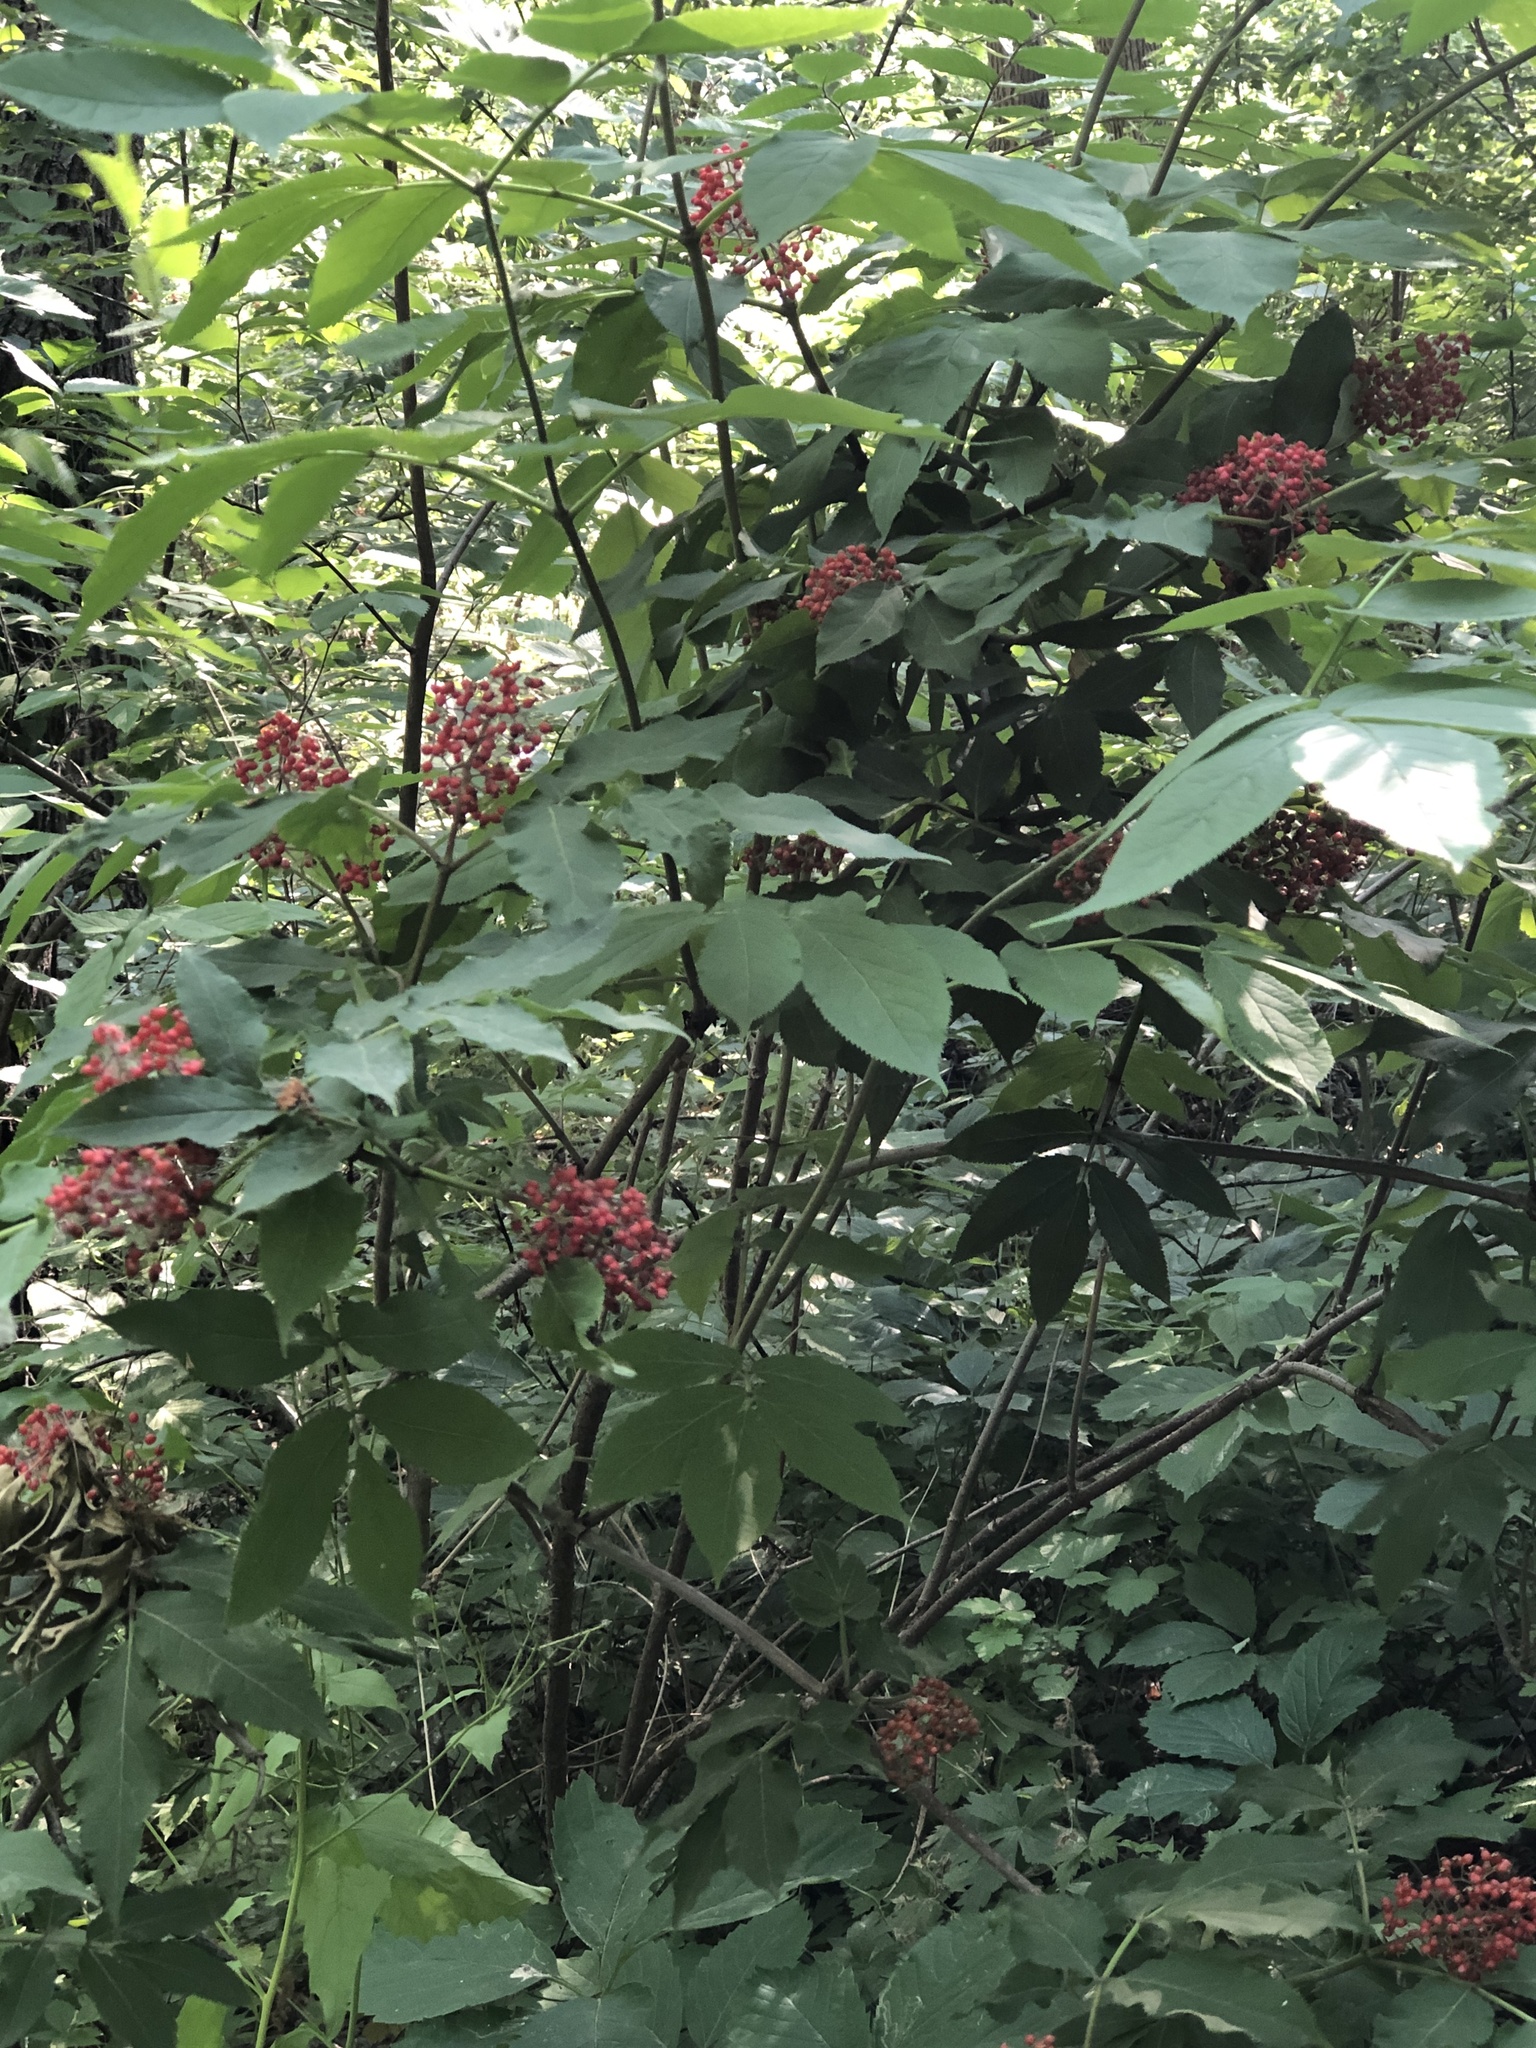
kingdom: Plantae
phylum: Tracheophyta
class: Magnoliopsida
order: Dipsacales
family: Viburnaceae
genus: Sambucus
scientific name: Sambucus racemosa
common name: Red-berried elder
